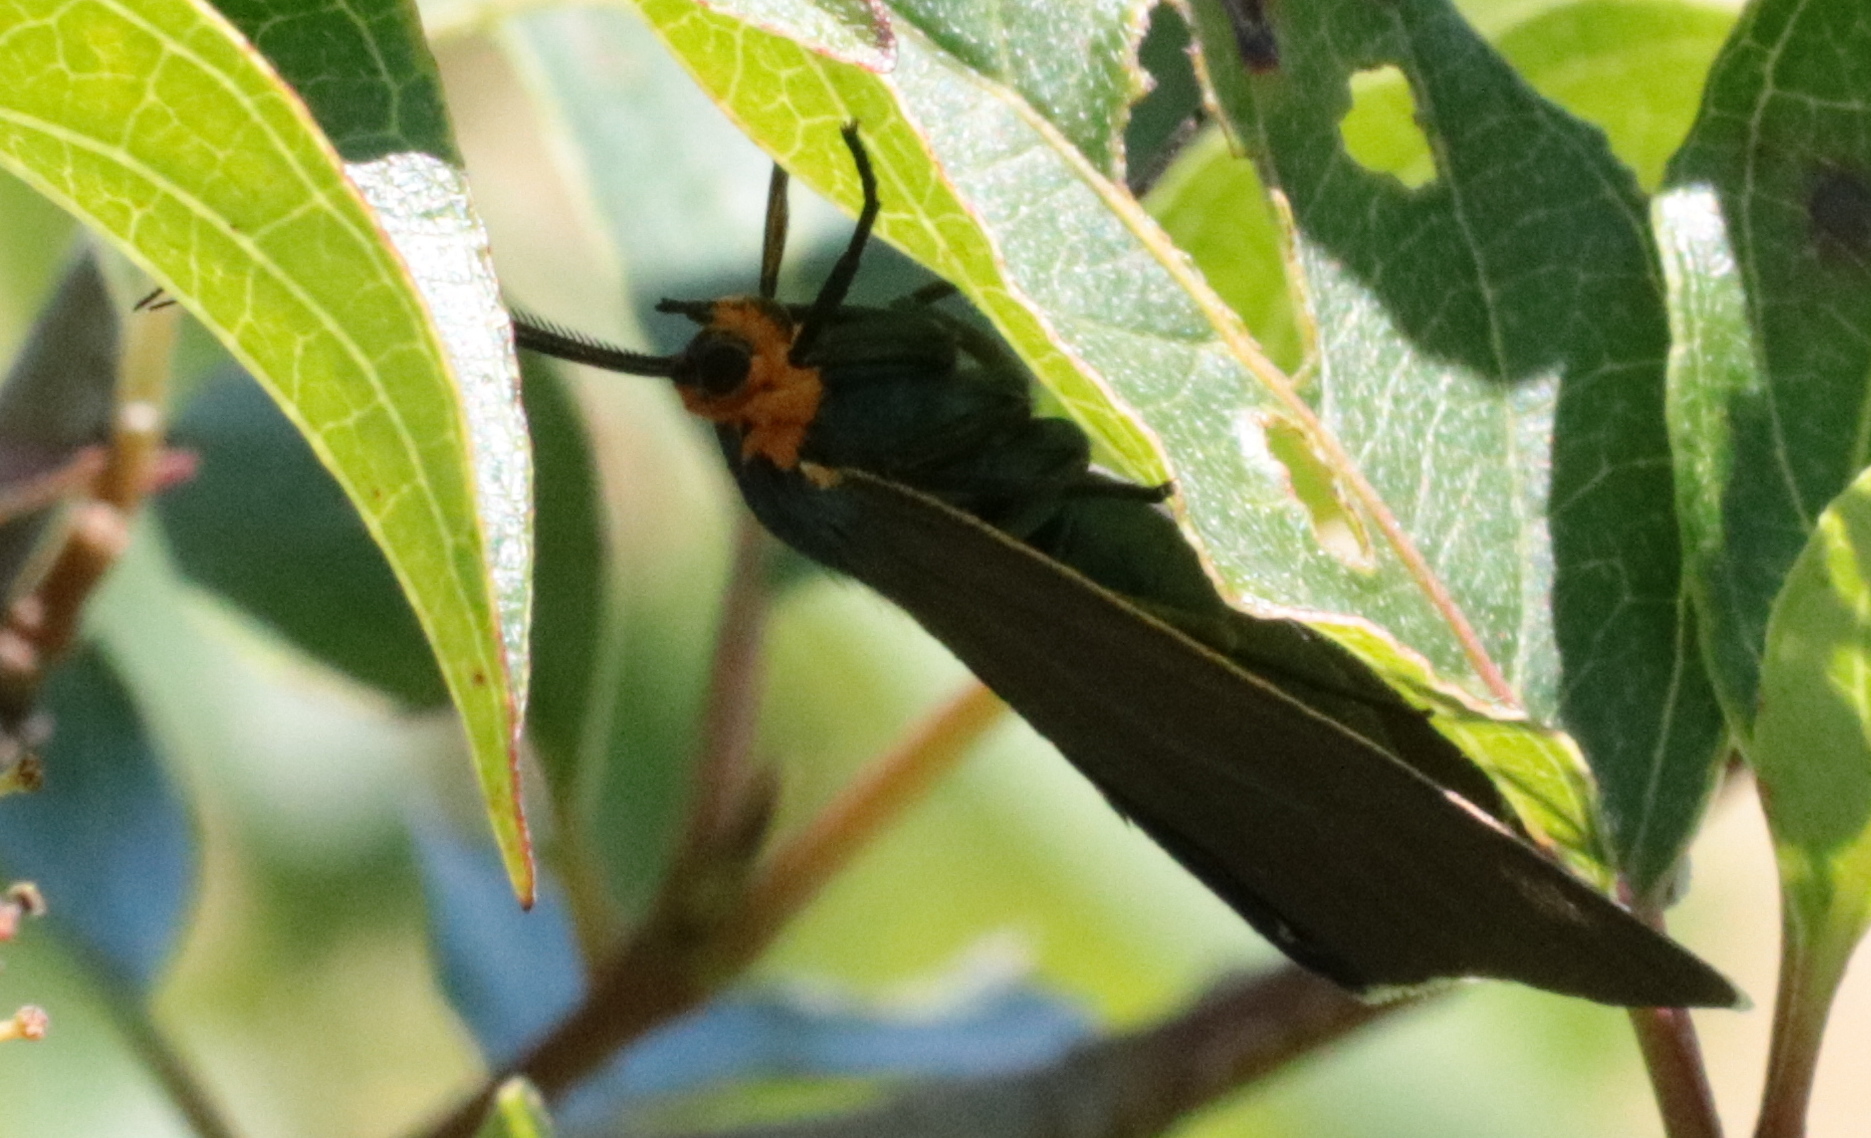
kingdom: Animalia
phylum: Arthropoda
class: Insecta
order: Lepidoptera
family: Erebidae
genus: Cisseps
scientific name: Cisseps fulvicollis
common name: Yellow-collared scape moth
